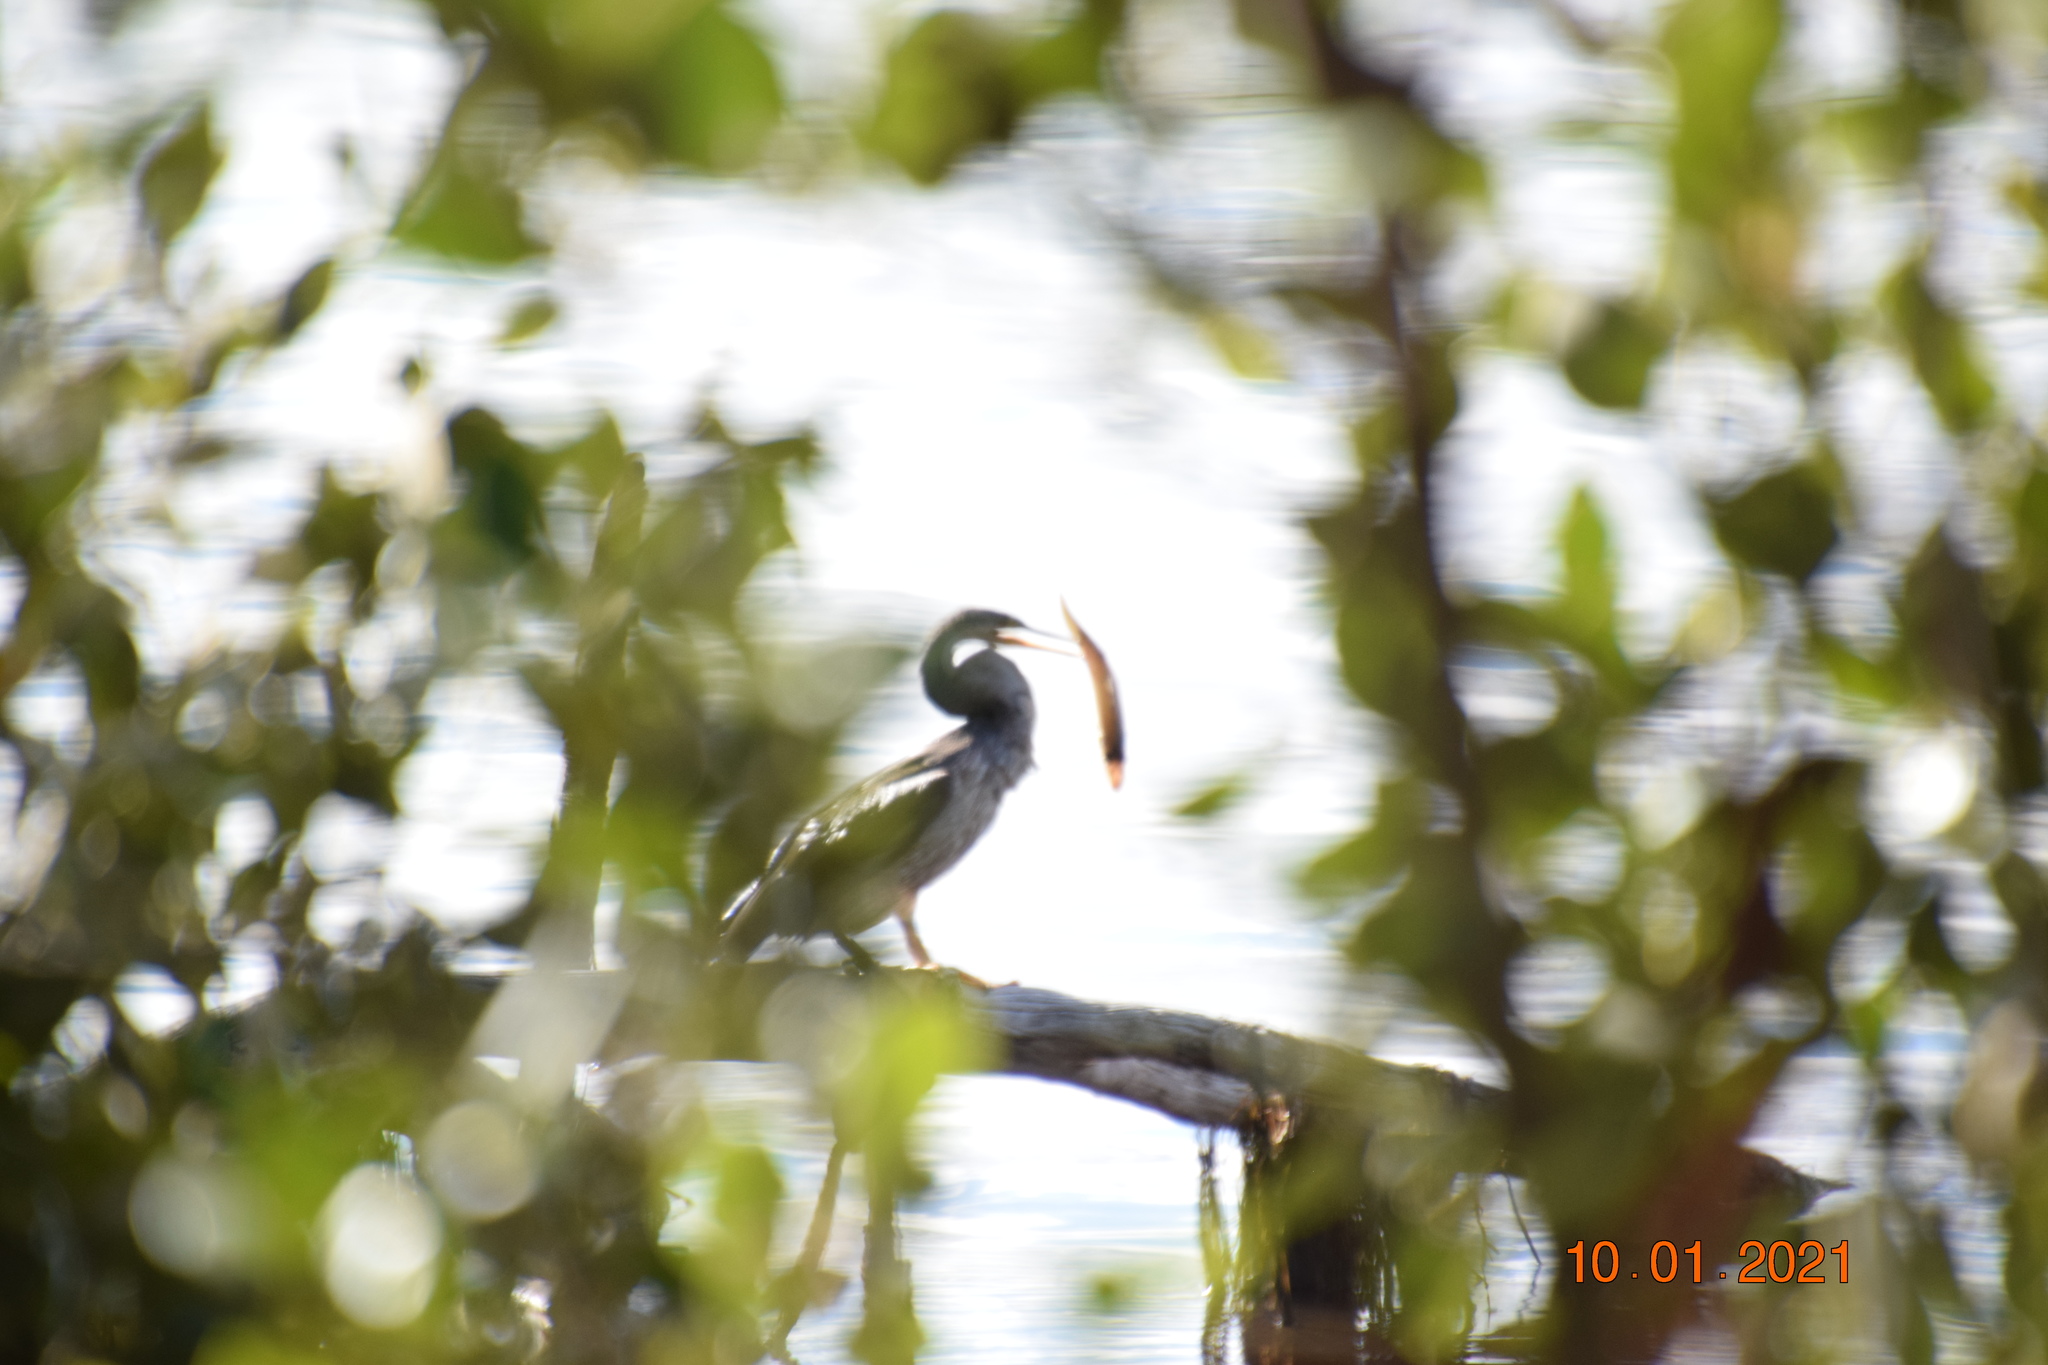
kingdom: Animalia
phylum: Chordata
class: Aves
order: Suliformes
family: Anhingidae
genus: Anhinga
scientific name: Anhinga novaehollandiae
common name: Australasian darter
